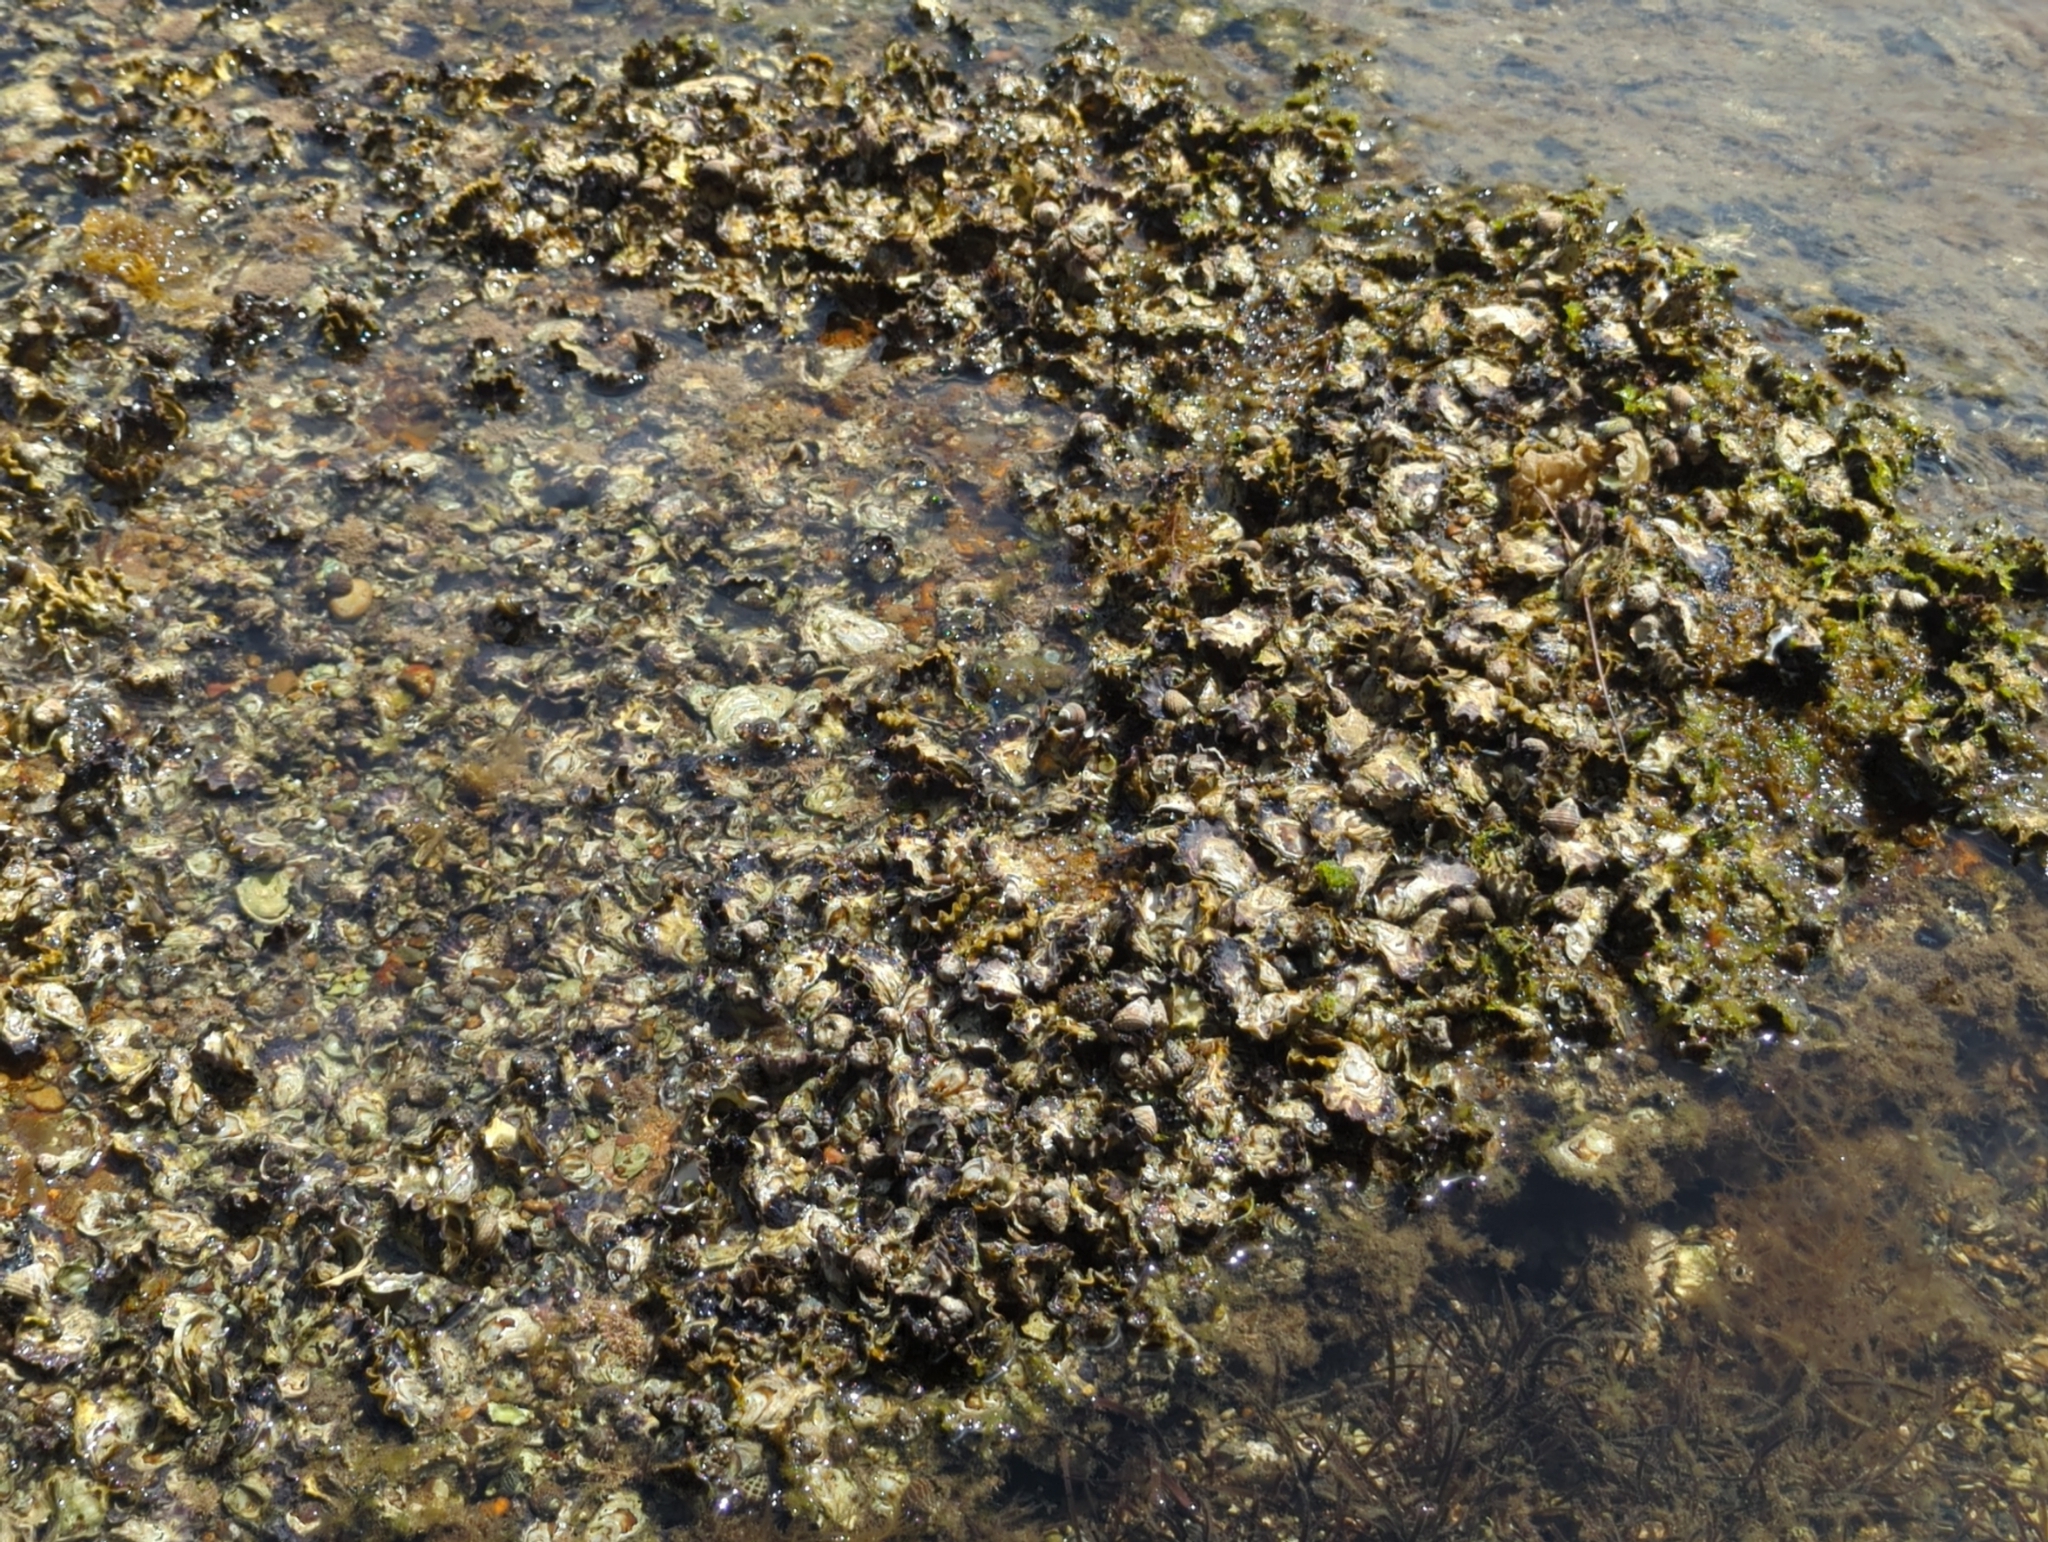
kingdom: Animalia
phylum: Mollusca
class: Bivalvia
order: Ostreida
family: Ostreidae
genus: Saccostrea
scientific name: Saccostrea glomerata
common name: Sydney cupped oyster
